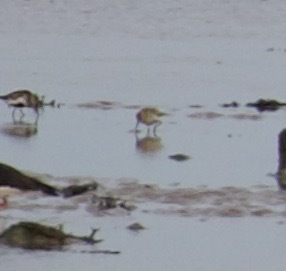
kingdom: Animalia
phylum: Chordata
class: Aves
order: Charadriiformes
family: Scolopacidae
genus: Calidris
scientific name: Calidris minuta
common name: Little stint
